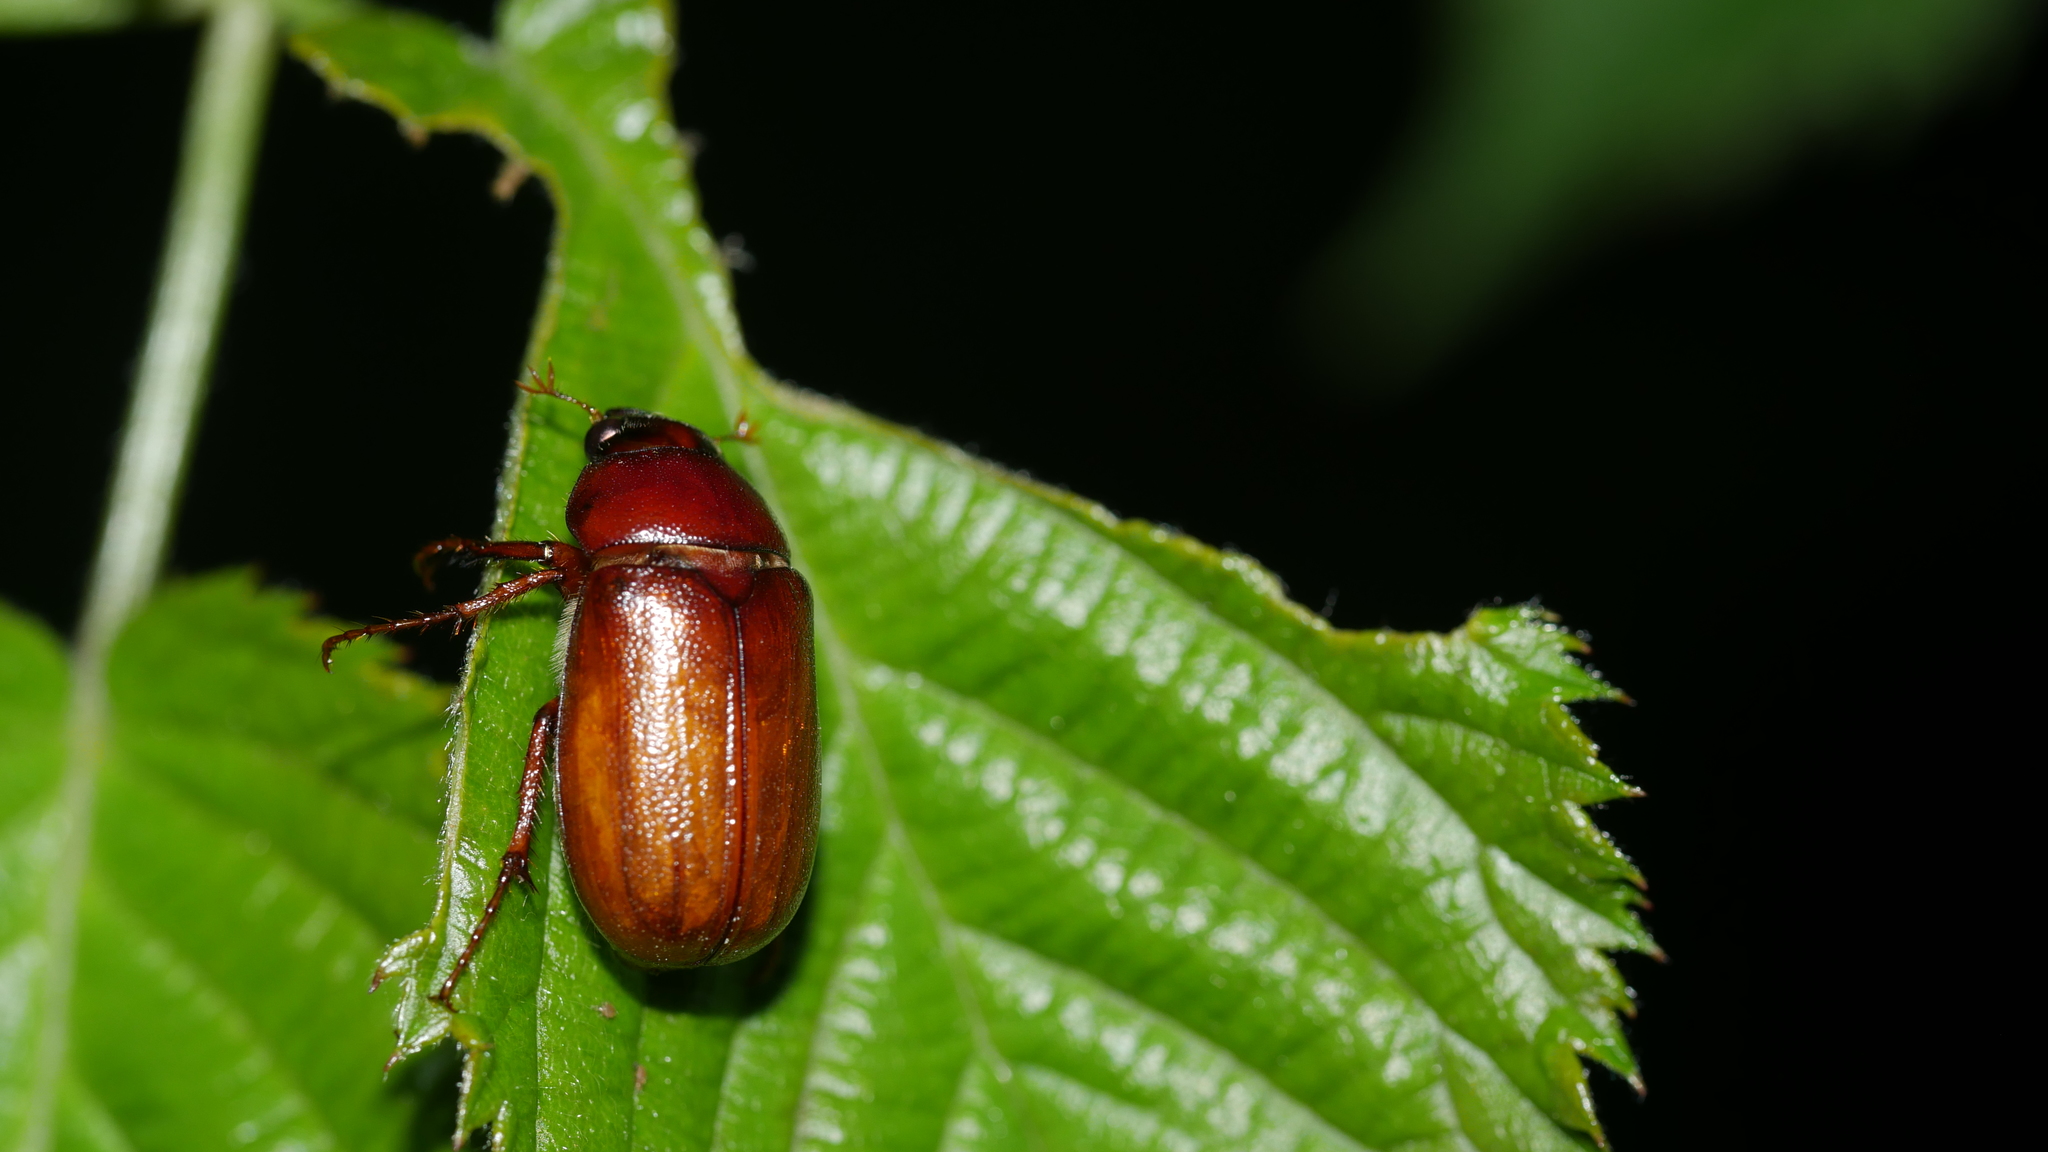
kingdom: Animalia
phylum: Arthropoda
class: Insecta
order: Coleoptera
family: Scarabaeidae
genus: Phyllophaga
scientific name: Phyllophaga
